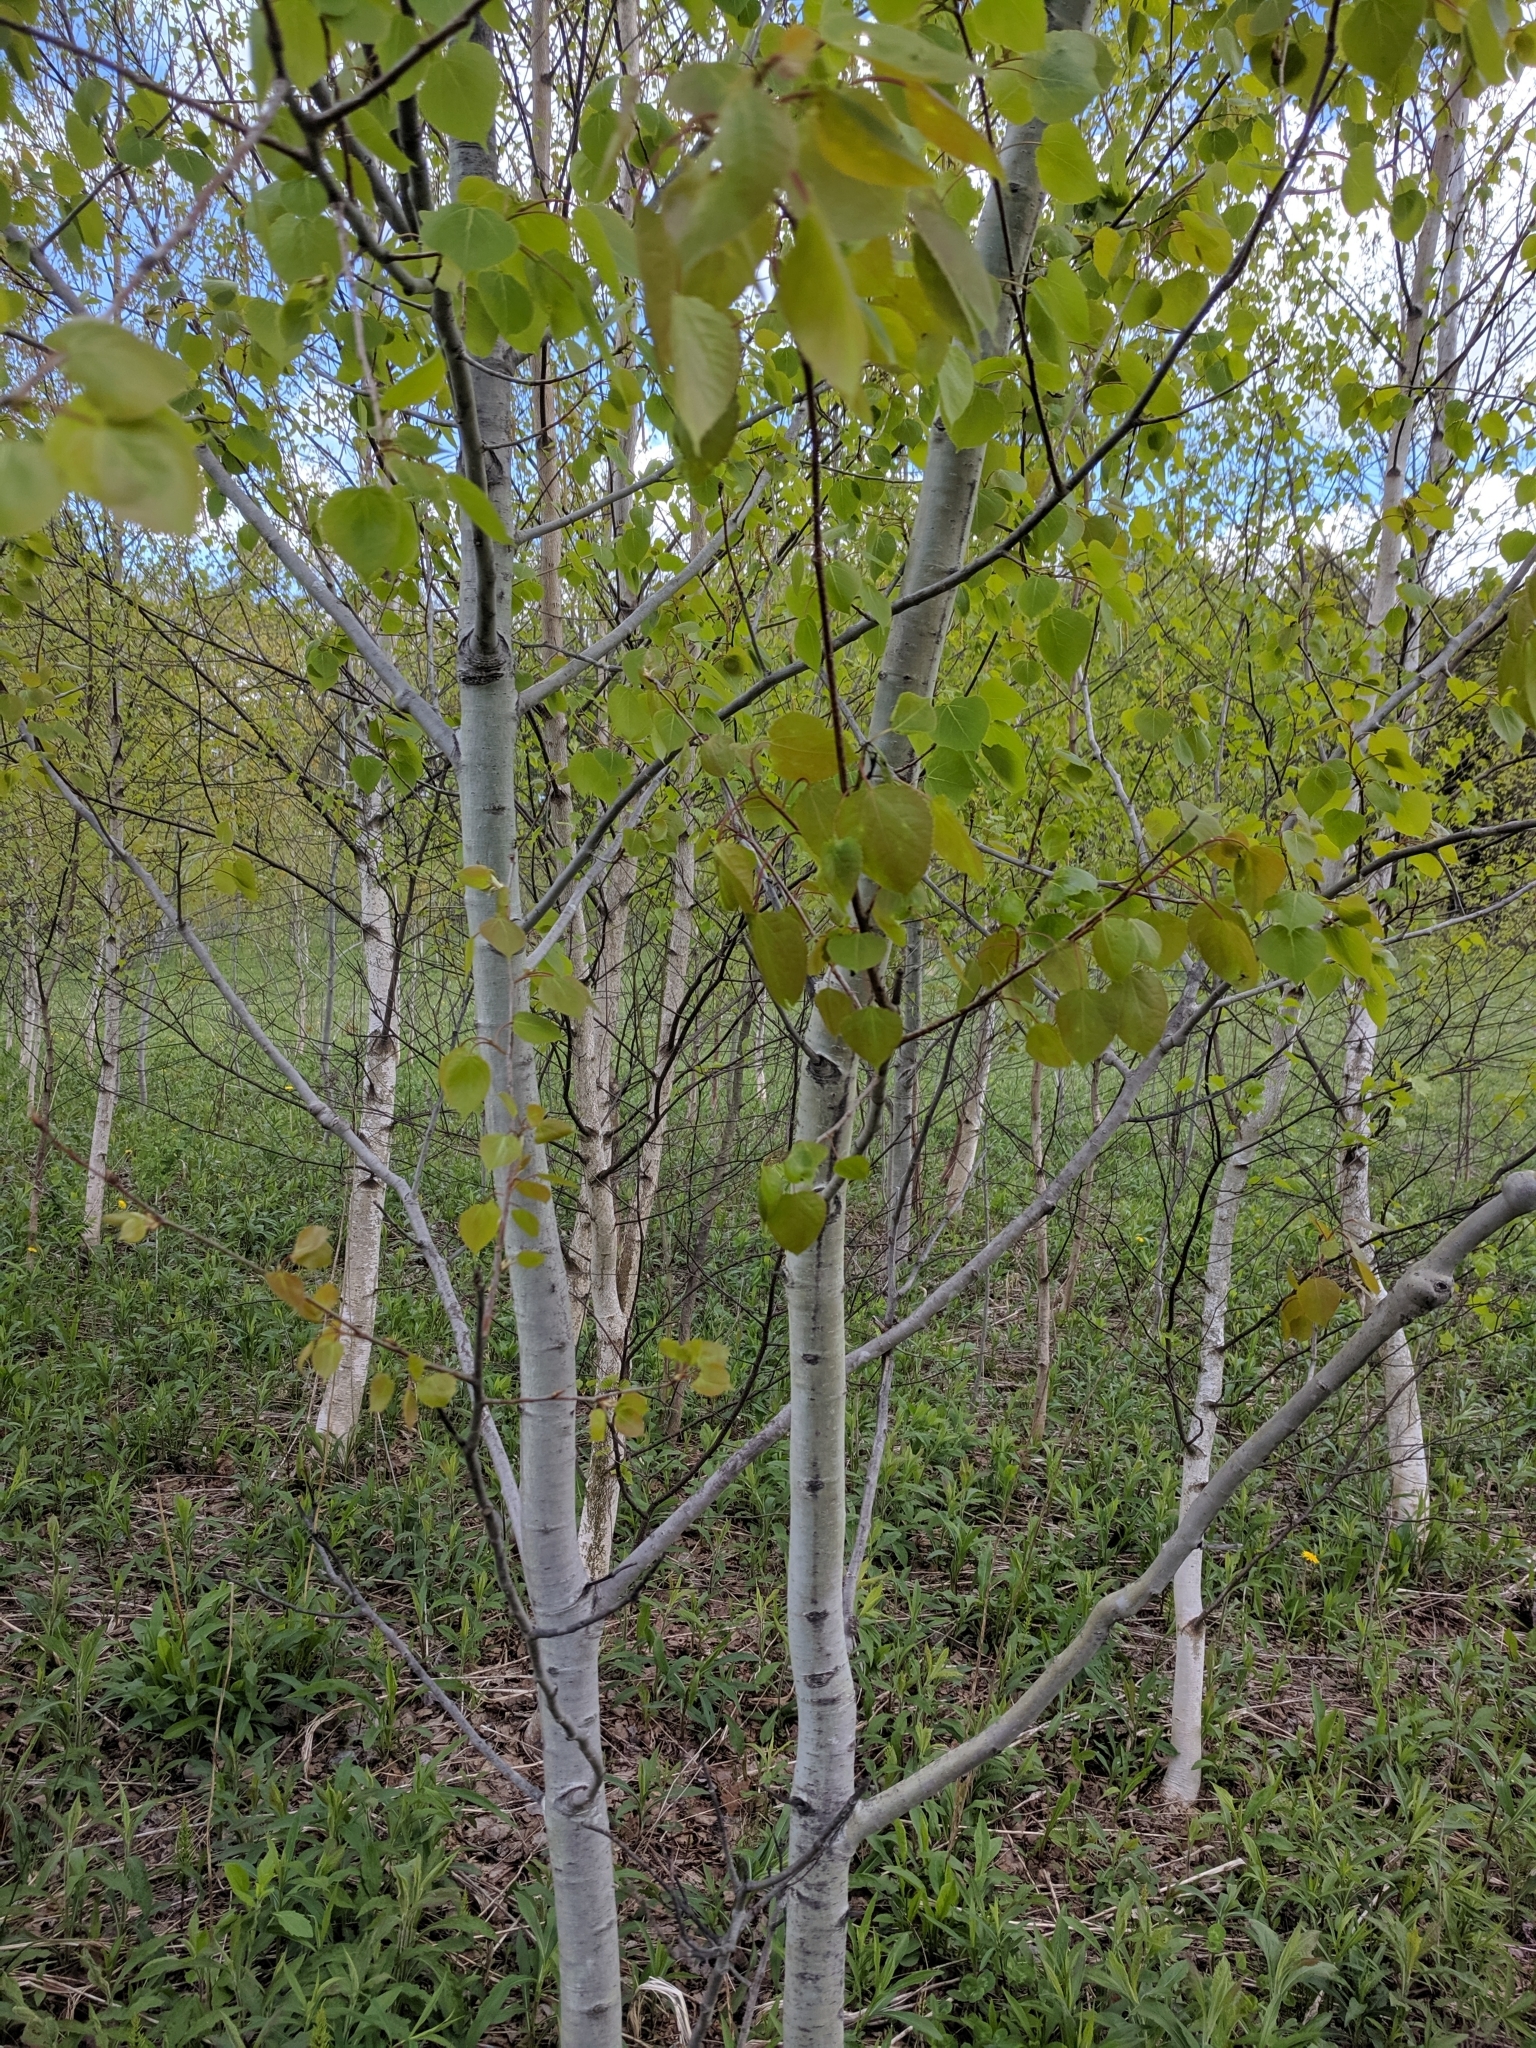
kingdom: Plantae
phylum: Tracheophyta
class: Magnoliopsida
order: Malpighiales
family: Salicaceae
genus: Populus
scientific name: Populus tremuloides
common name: Quaking aspen
